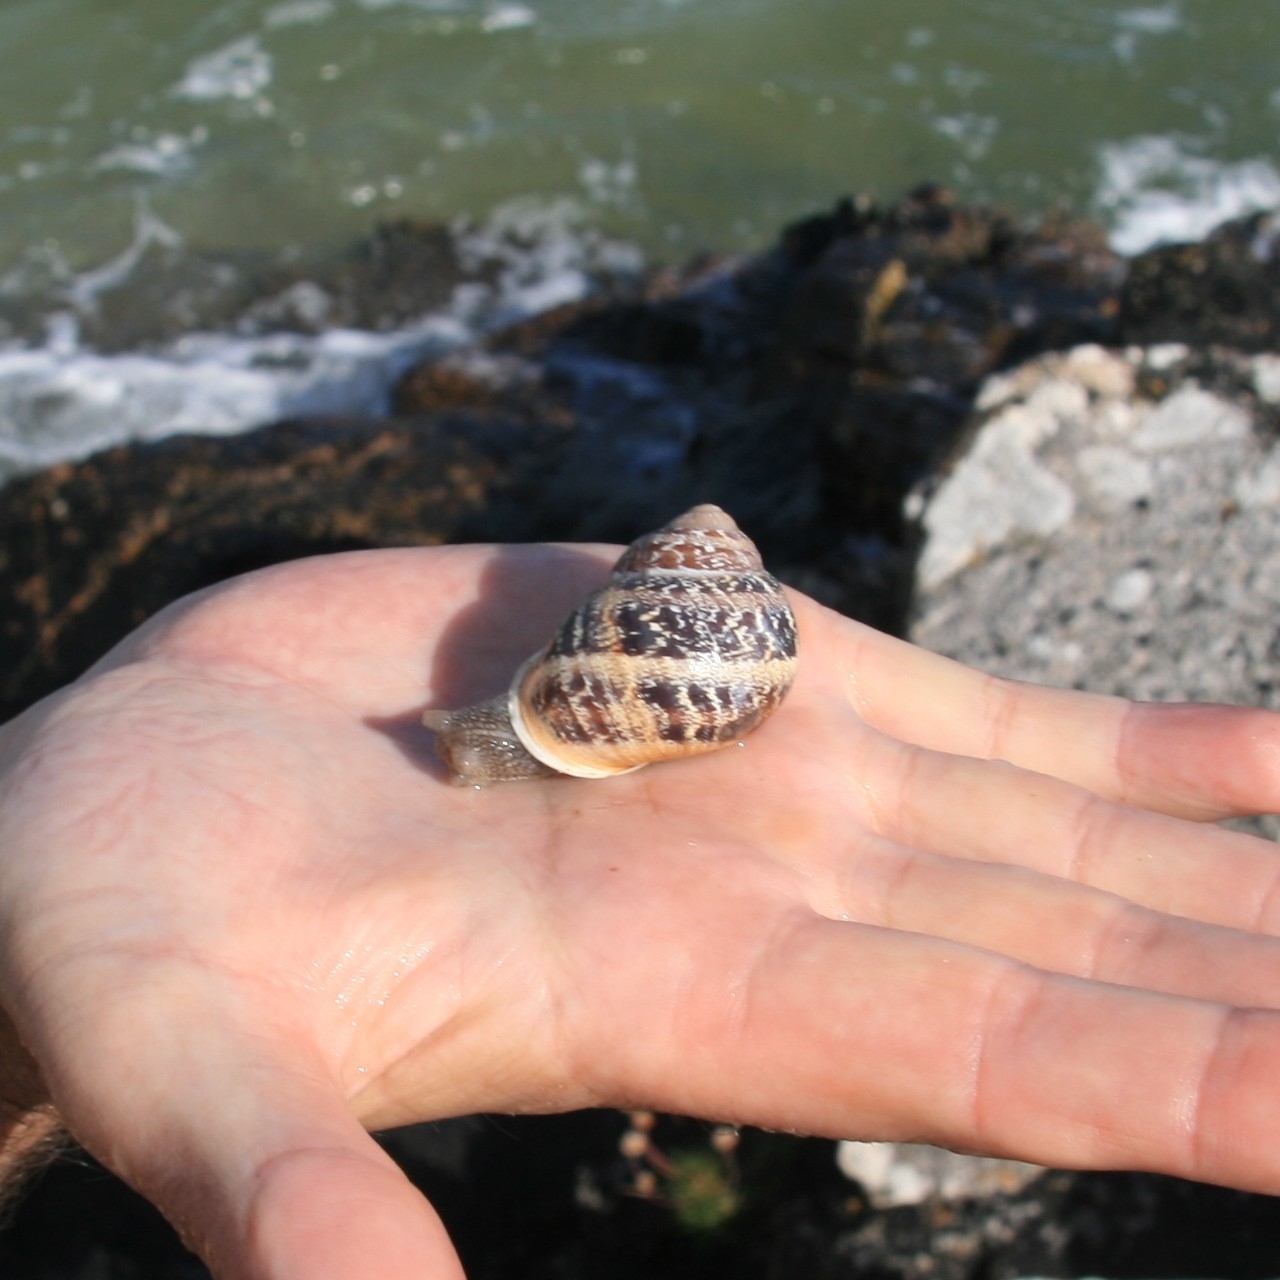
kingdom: Animalia
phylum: Mollusca
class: Gastropoda
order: Stylommatophora
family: Helicidae
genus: Cornu
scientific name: Cornu aspersum
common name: Brown garden snail
